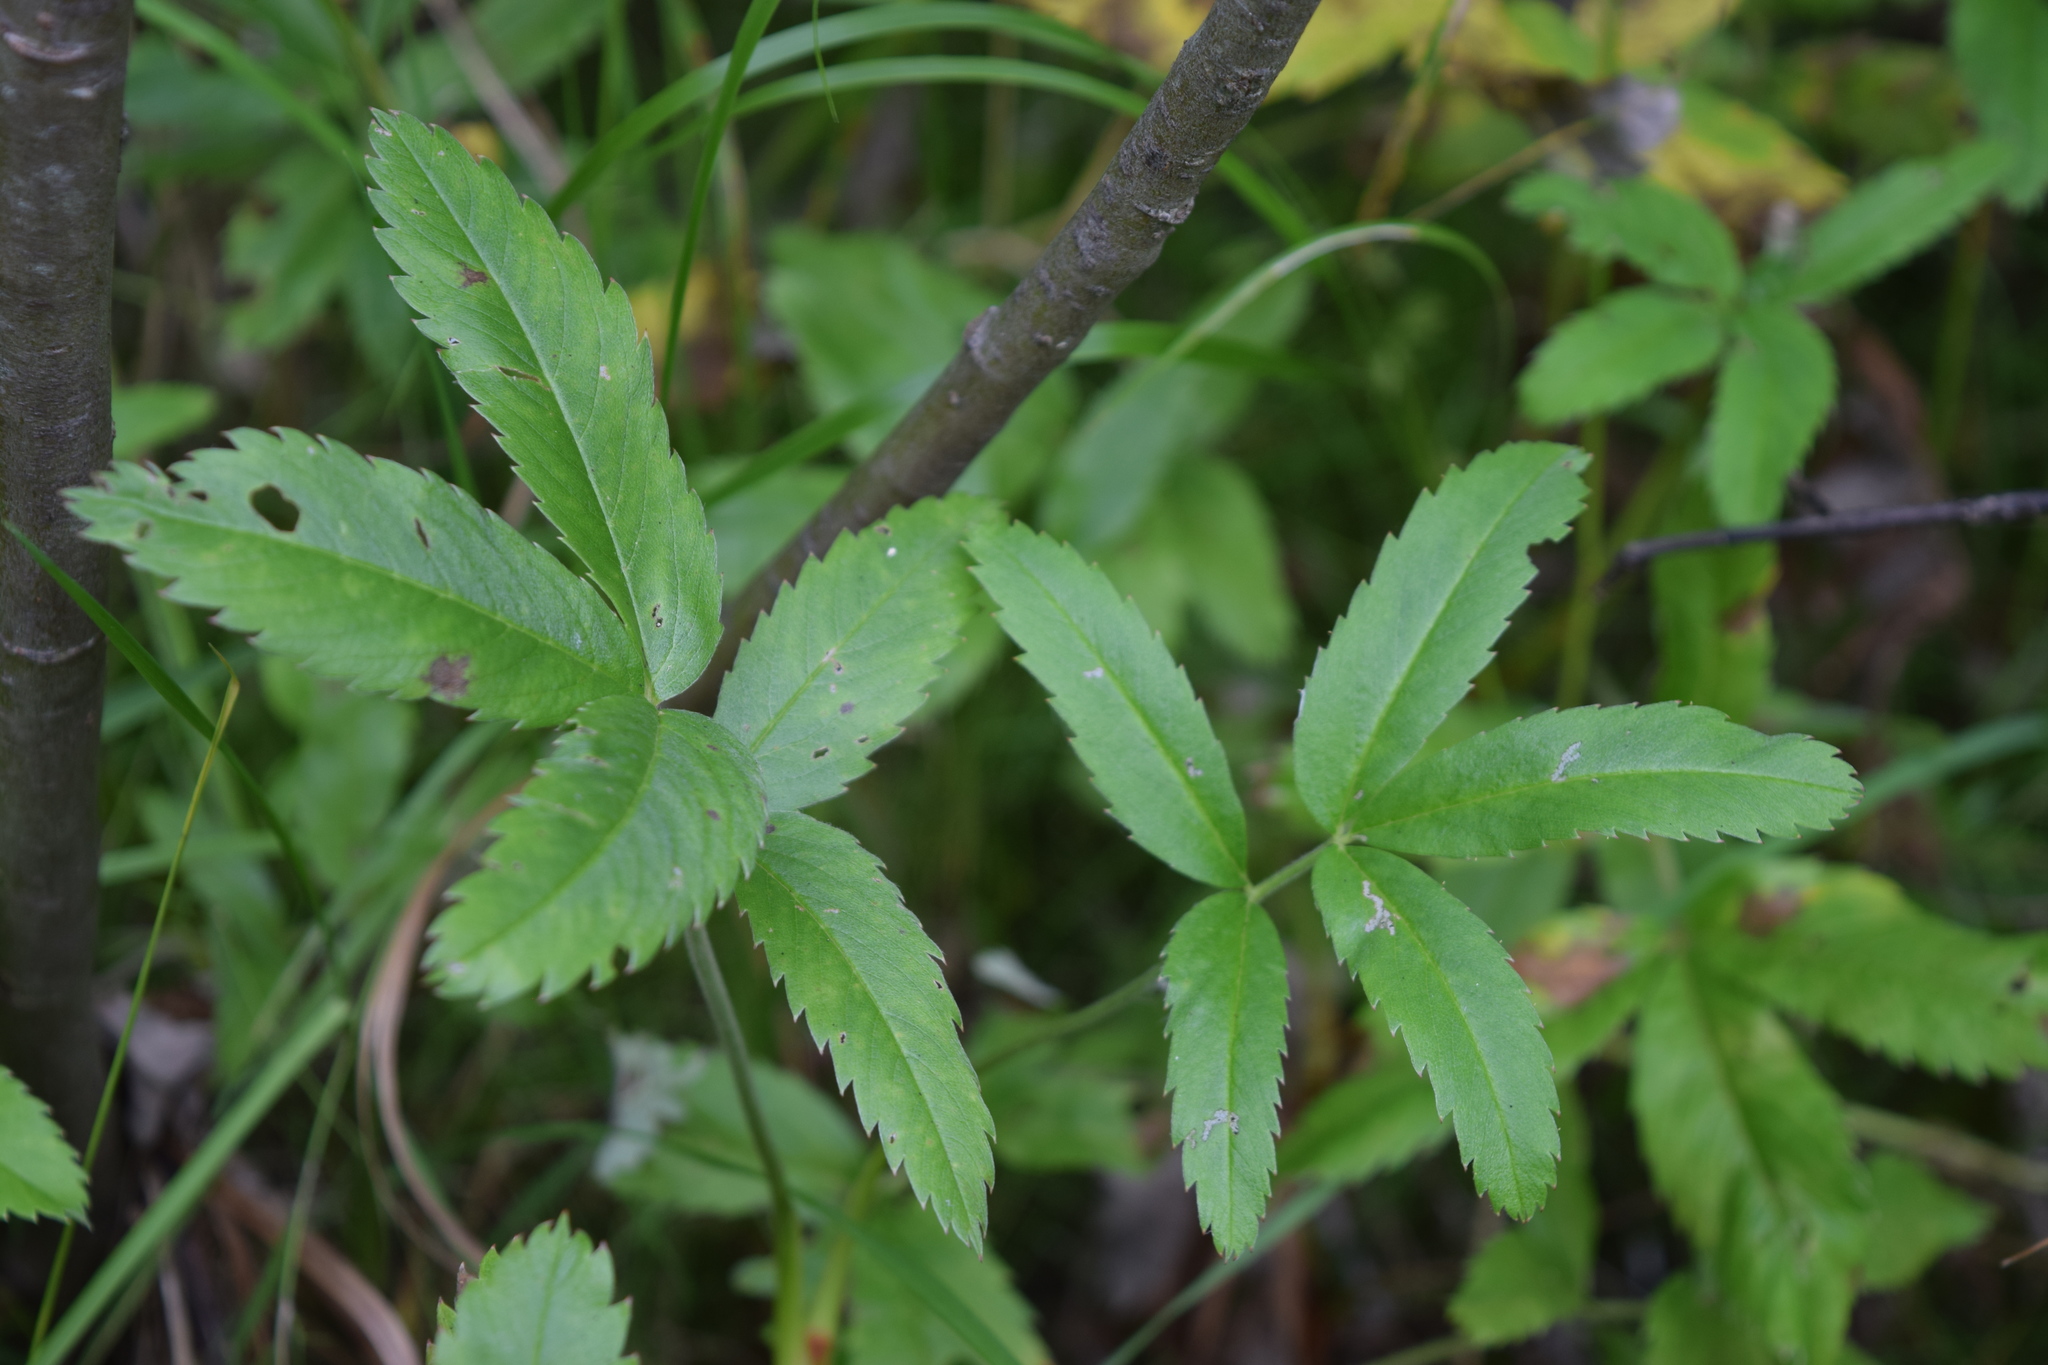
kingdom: Plantae
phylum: Tracheophyta
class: Magnoliopsida
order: Rosales
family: Rosaceae
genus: Comarum
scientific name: Comarum palustre
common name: Marsh cinquefoil
